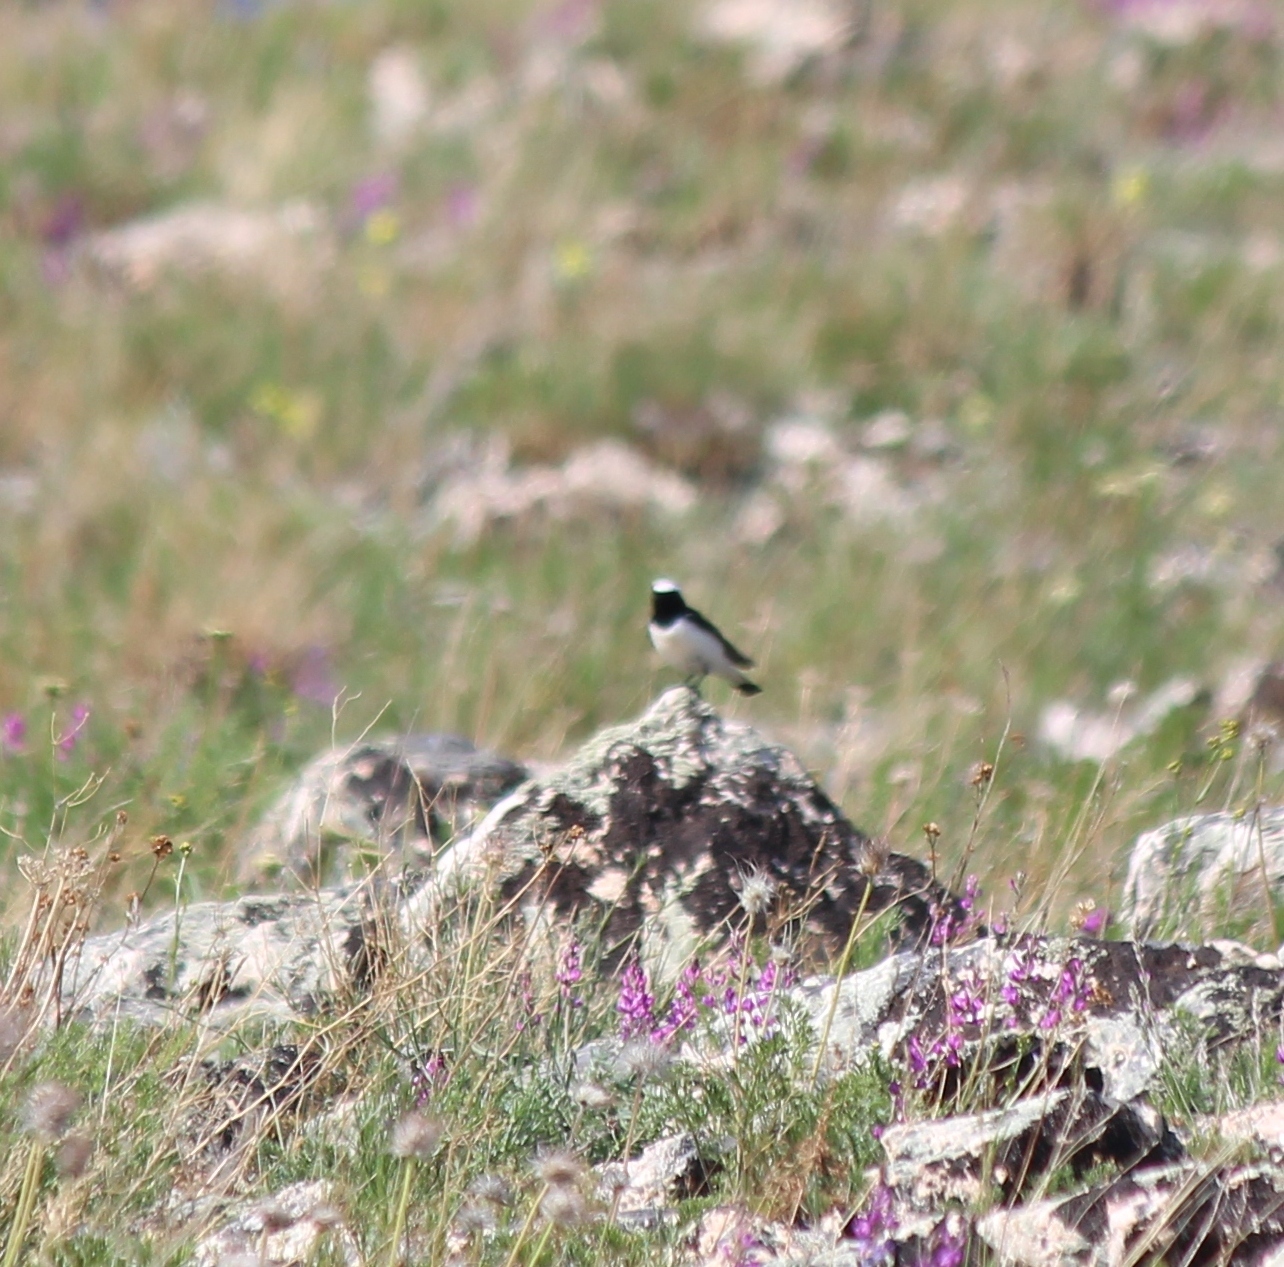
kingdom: Animalia
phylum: Chordata
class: Aves
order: Passeriformes
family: Muscicapidae
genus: Oenanthe
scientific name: Oenanthe pleschanka
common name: Pied wheatear
